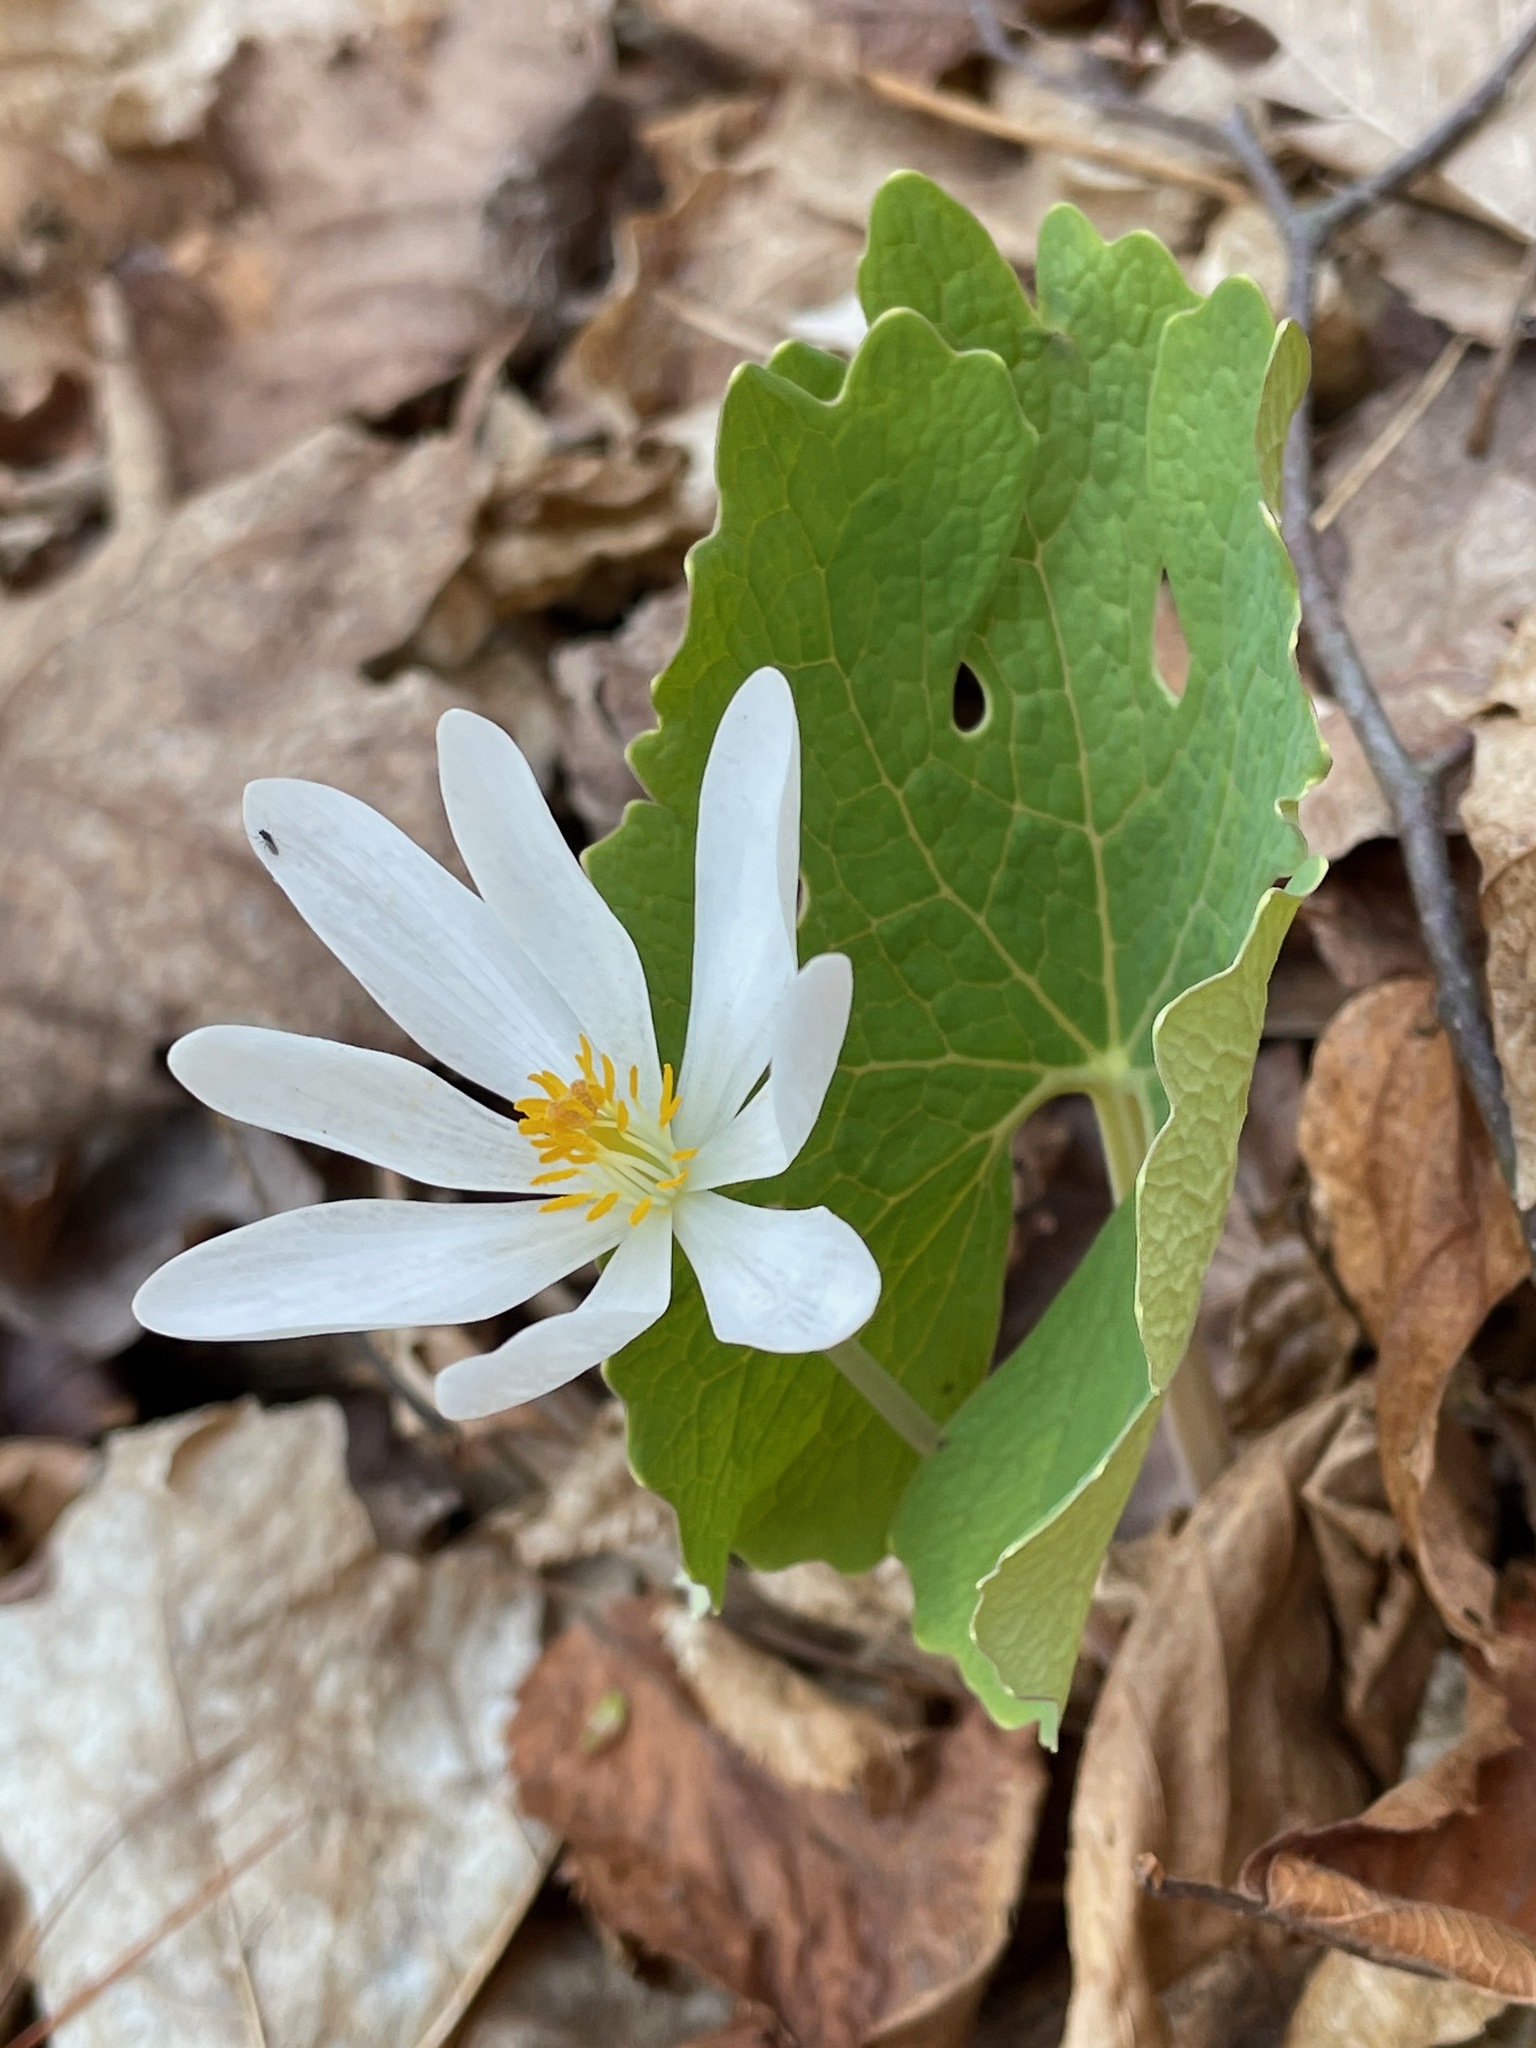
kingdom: Plantae
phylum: Tracheophyta
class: Magnoliopsida
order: Ranunculales
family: Papaveraceae
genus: Sanguinaria
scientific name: Sanguinaria canadensis
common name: Bloodroot
